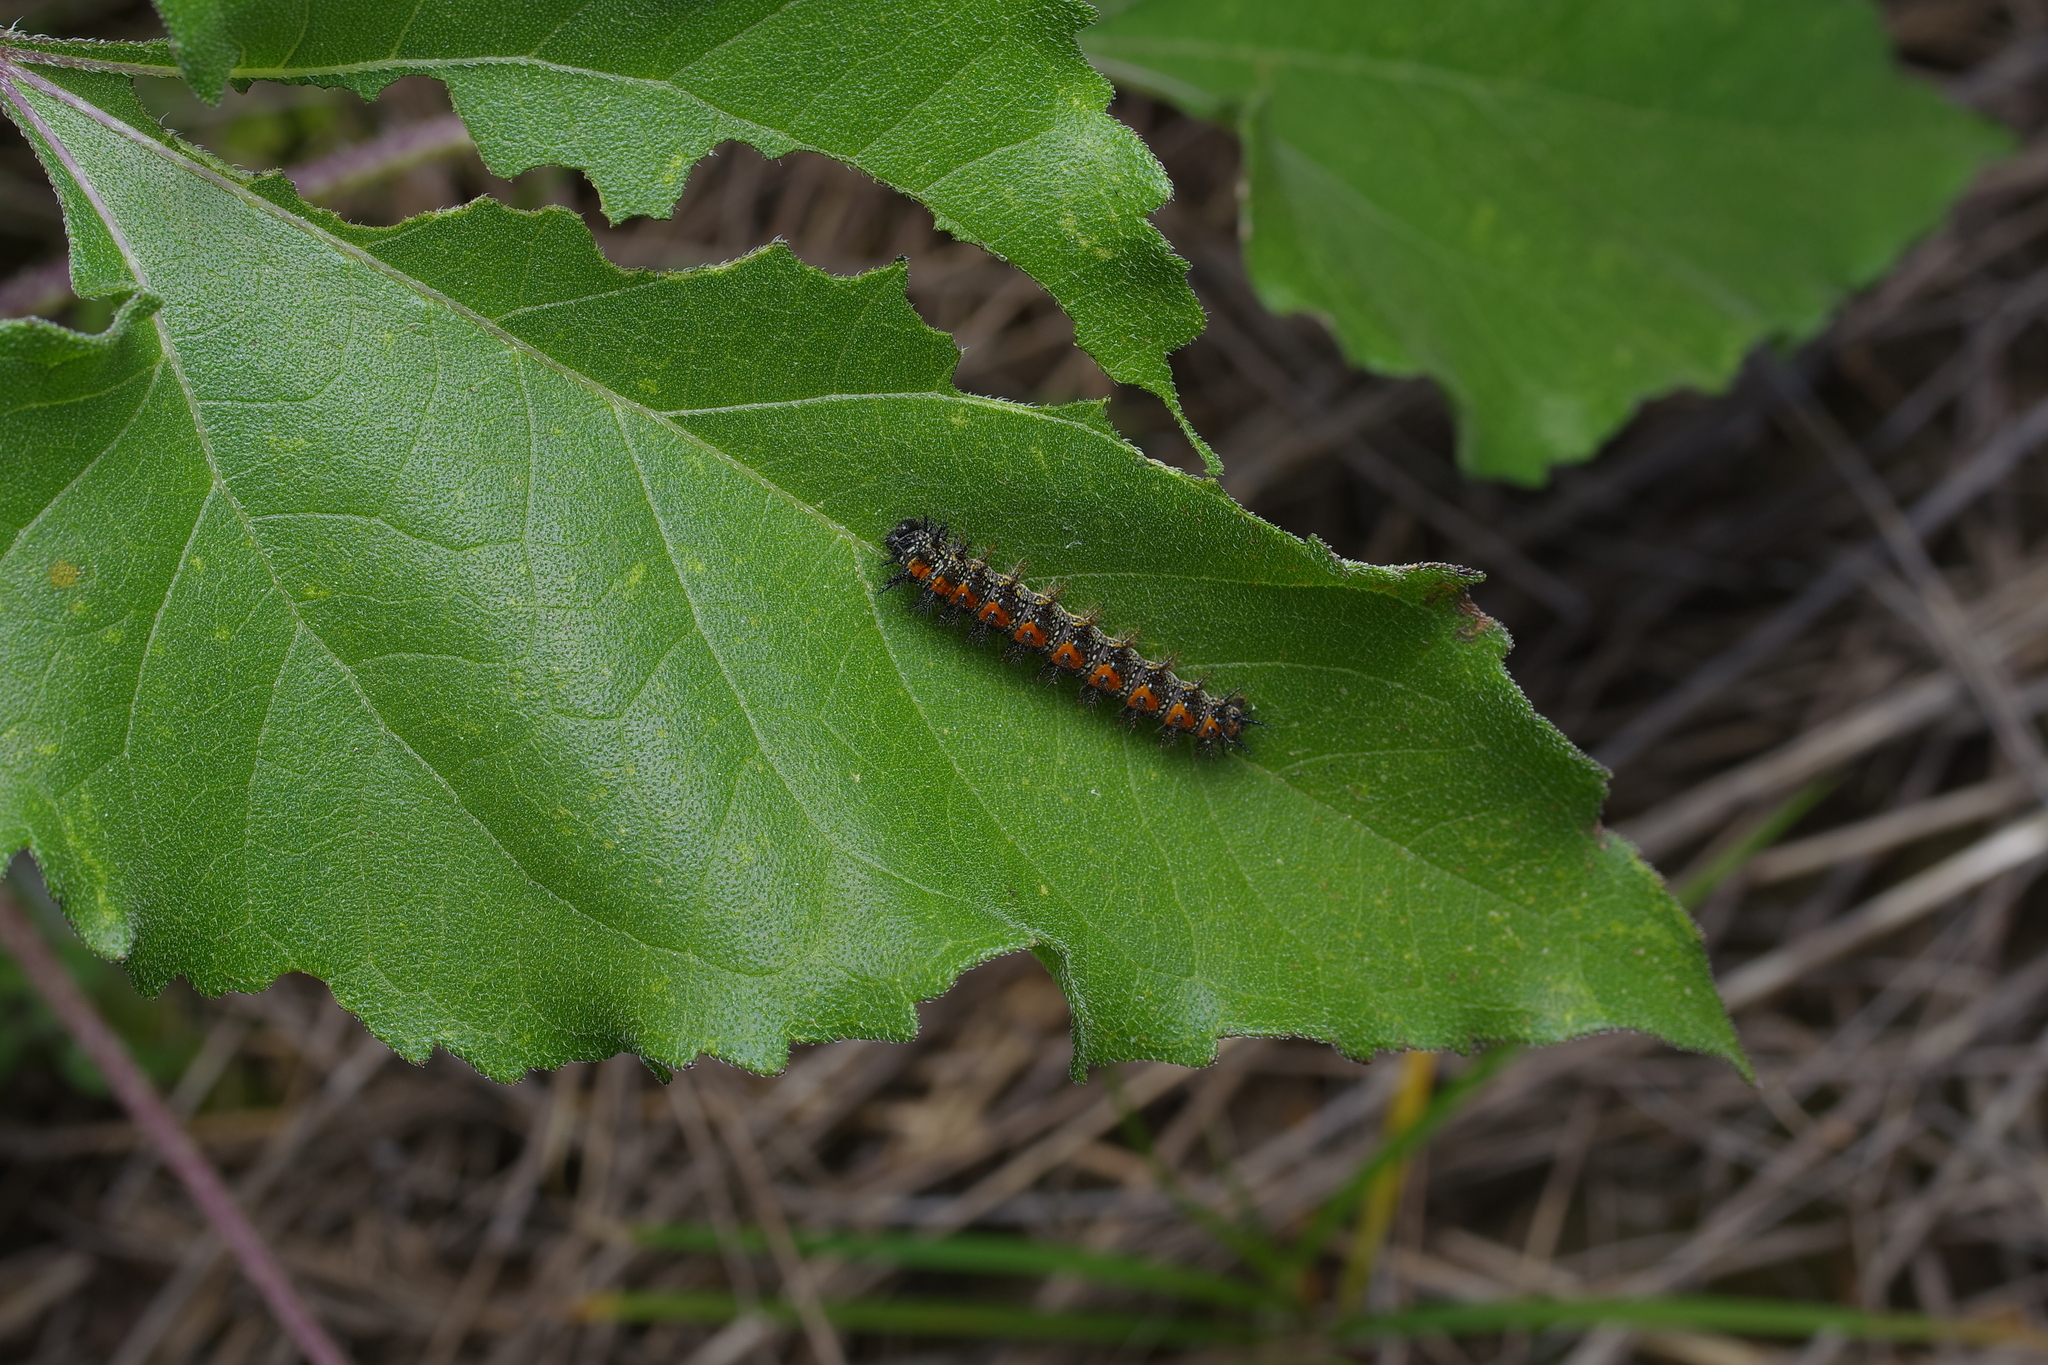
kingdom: Animalia
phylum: Arthropoda
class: Insecta
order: Lepidoptera
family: Nymphalidae
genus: Chlosyne
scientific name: Chlosyne lacinia
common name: Bordered patch
